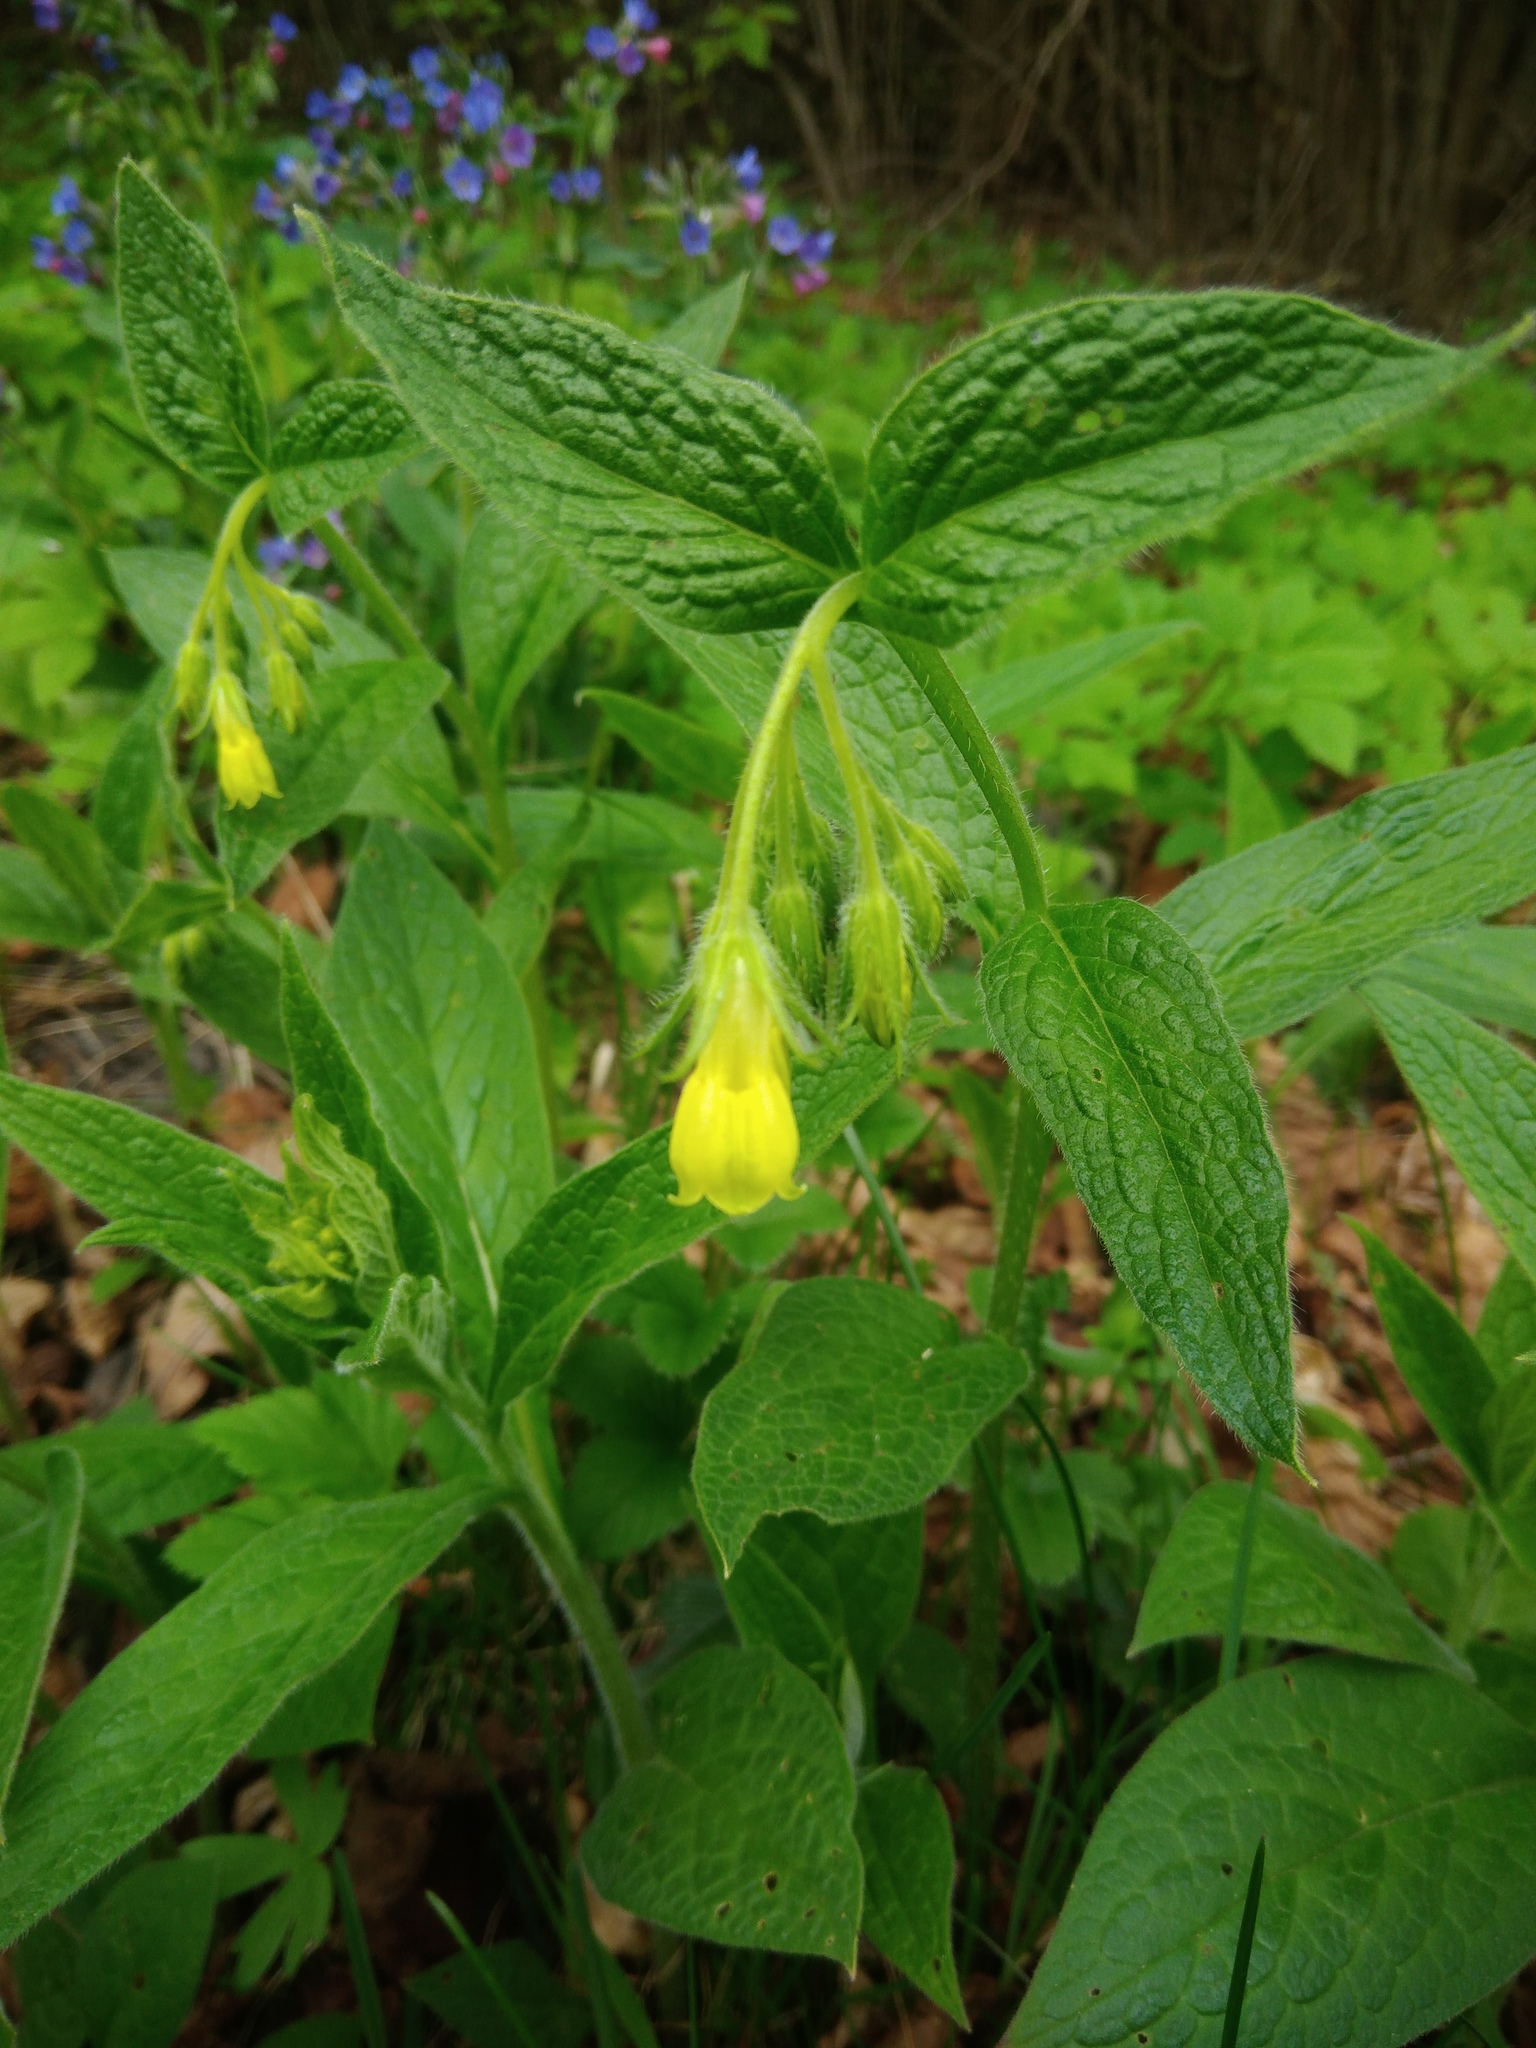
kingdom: Plantae
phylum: Tracheophyta
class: Magnoliopsida
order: Boraginales
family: Boraginaceae
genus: Symphytum
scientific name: Symphytum officinale
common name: Common comfrey
